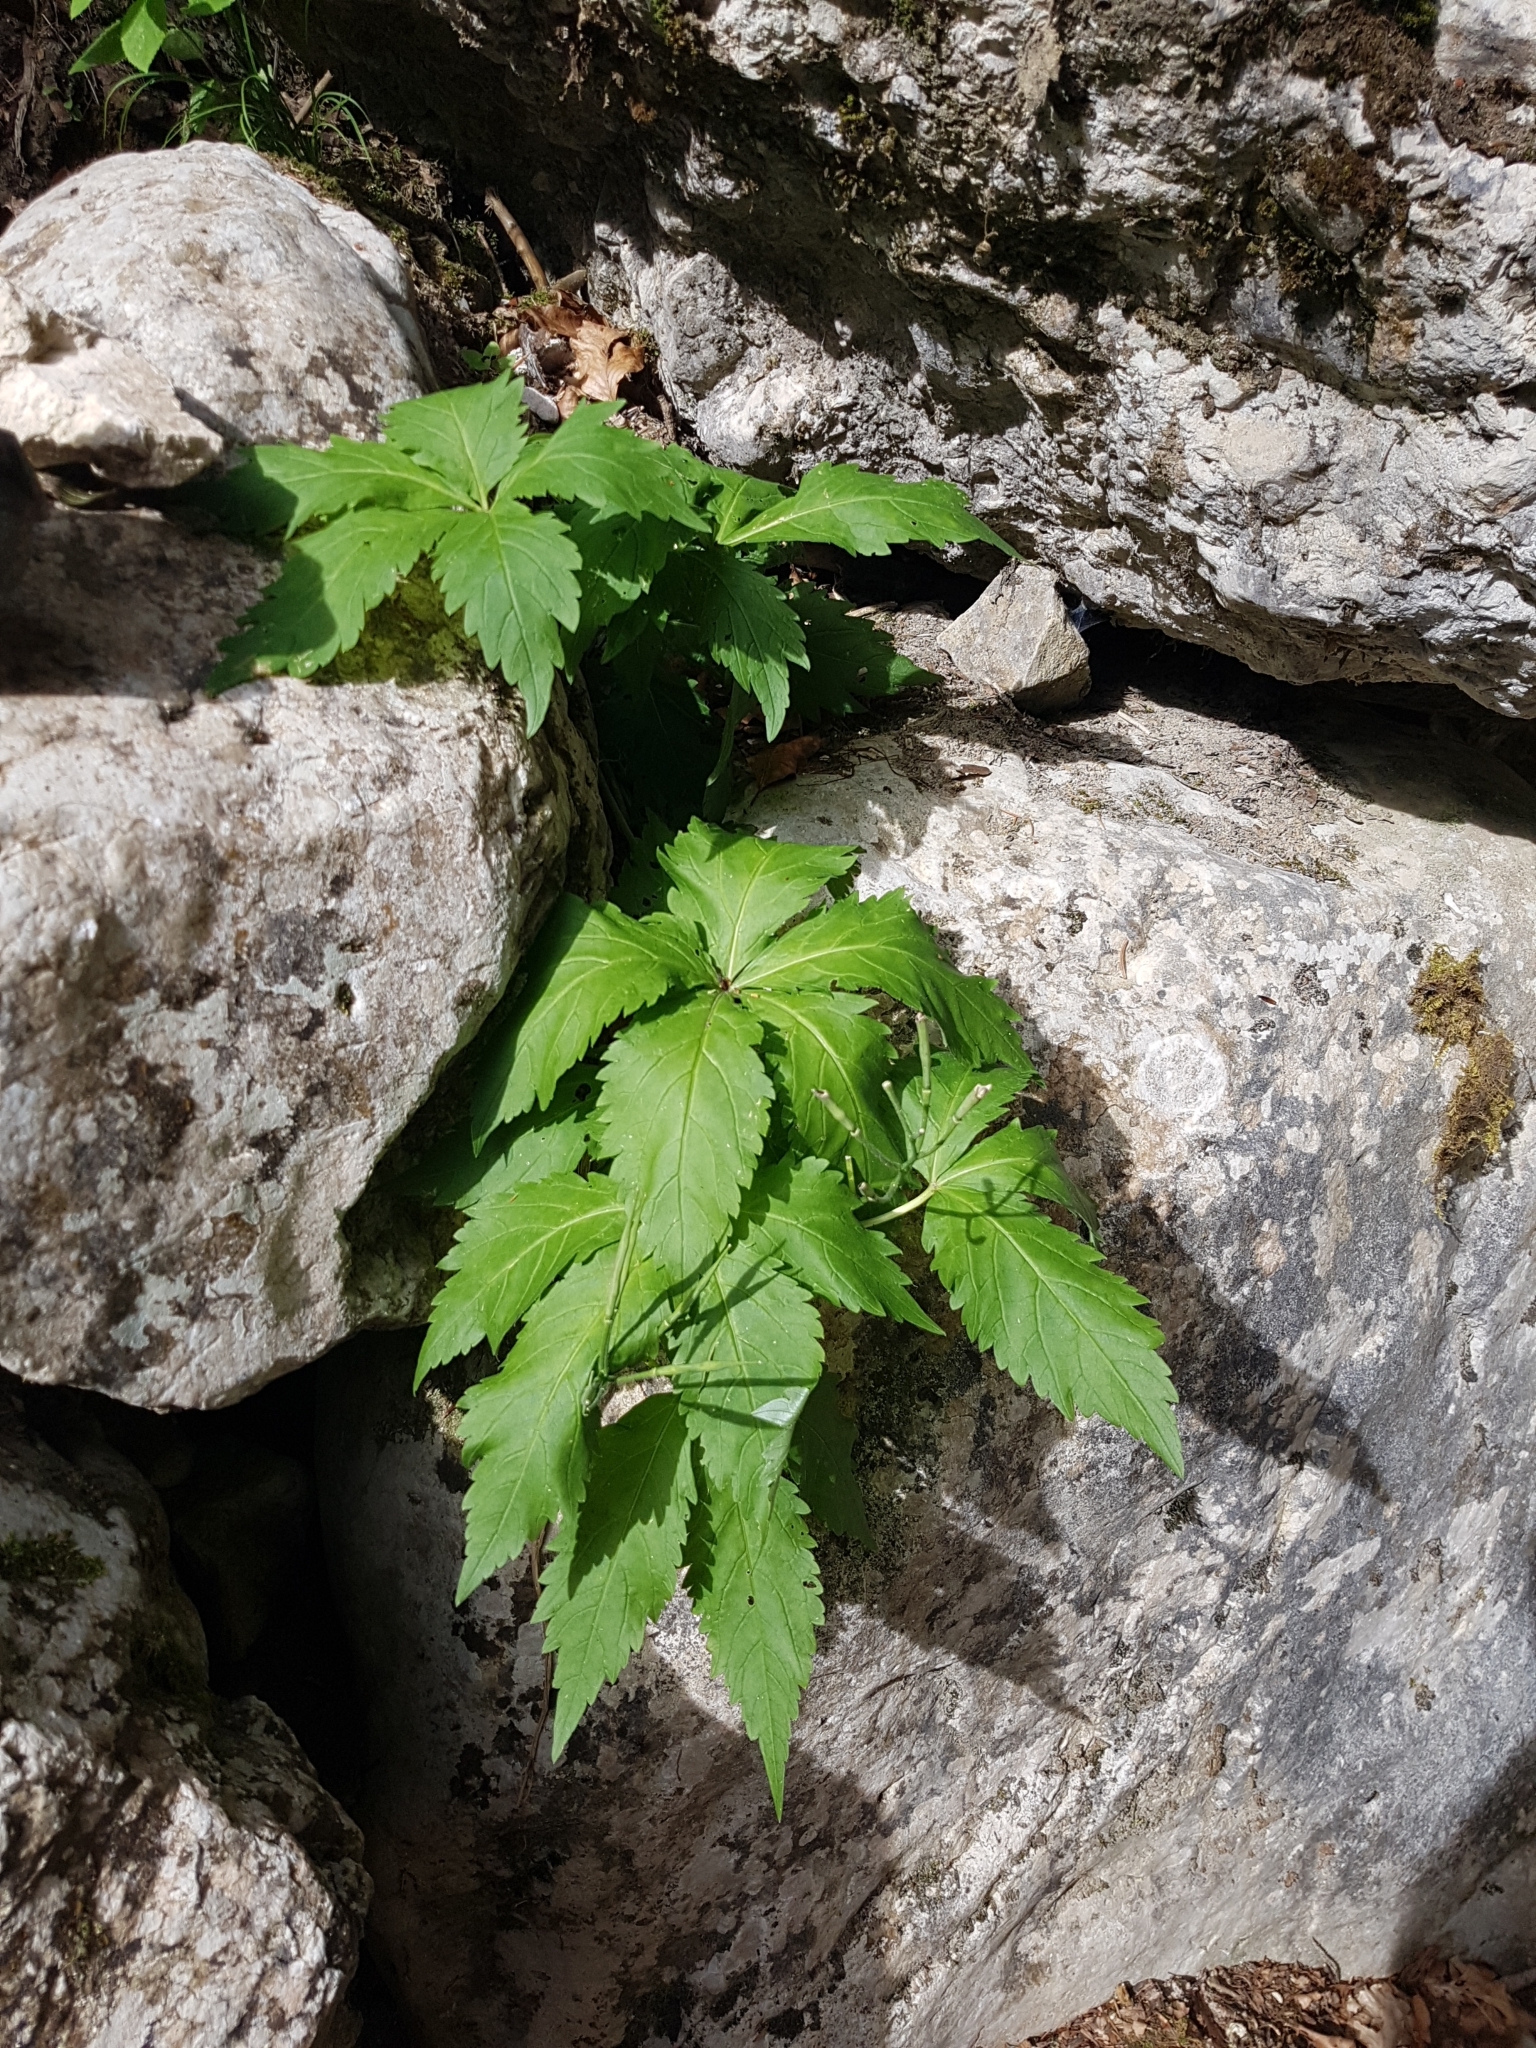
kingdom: Plantae
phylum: Tracheophyta
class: Magnoliopsida
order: Brassicales
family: Brassicaceae
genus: Cardamine
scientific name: Cardamine pentaphyllos
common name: Five-leaflet bitter-cress
